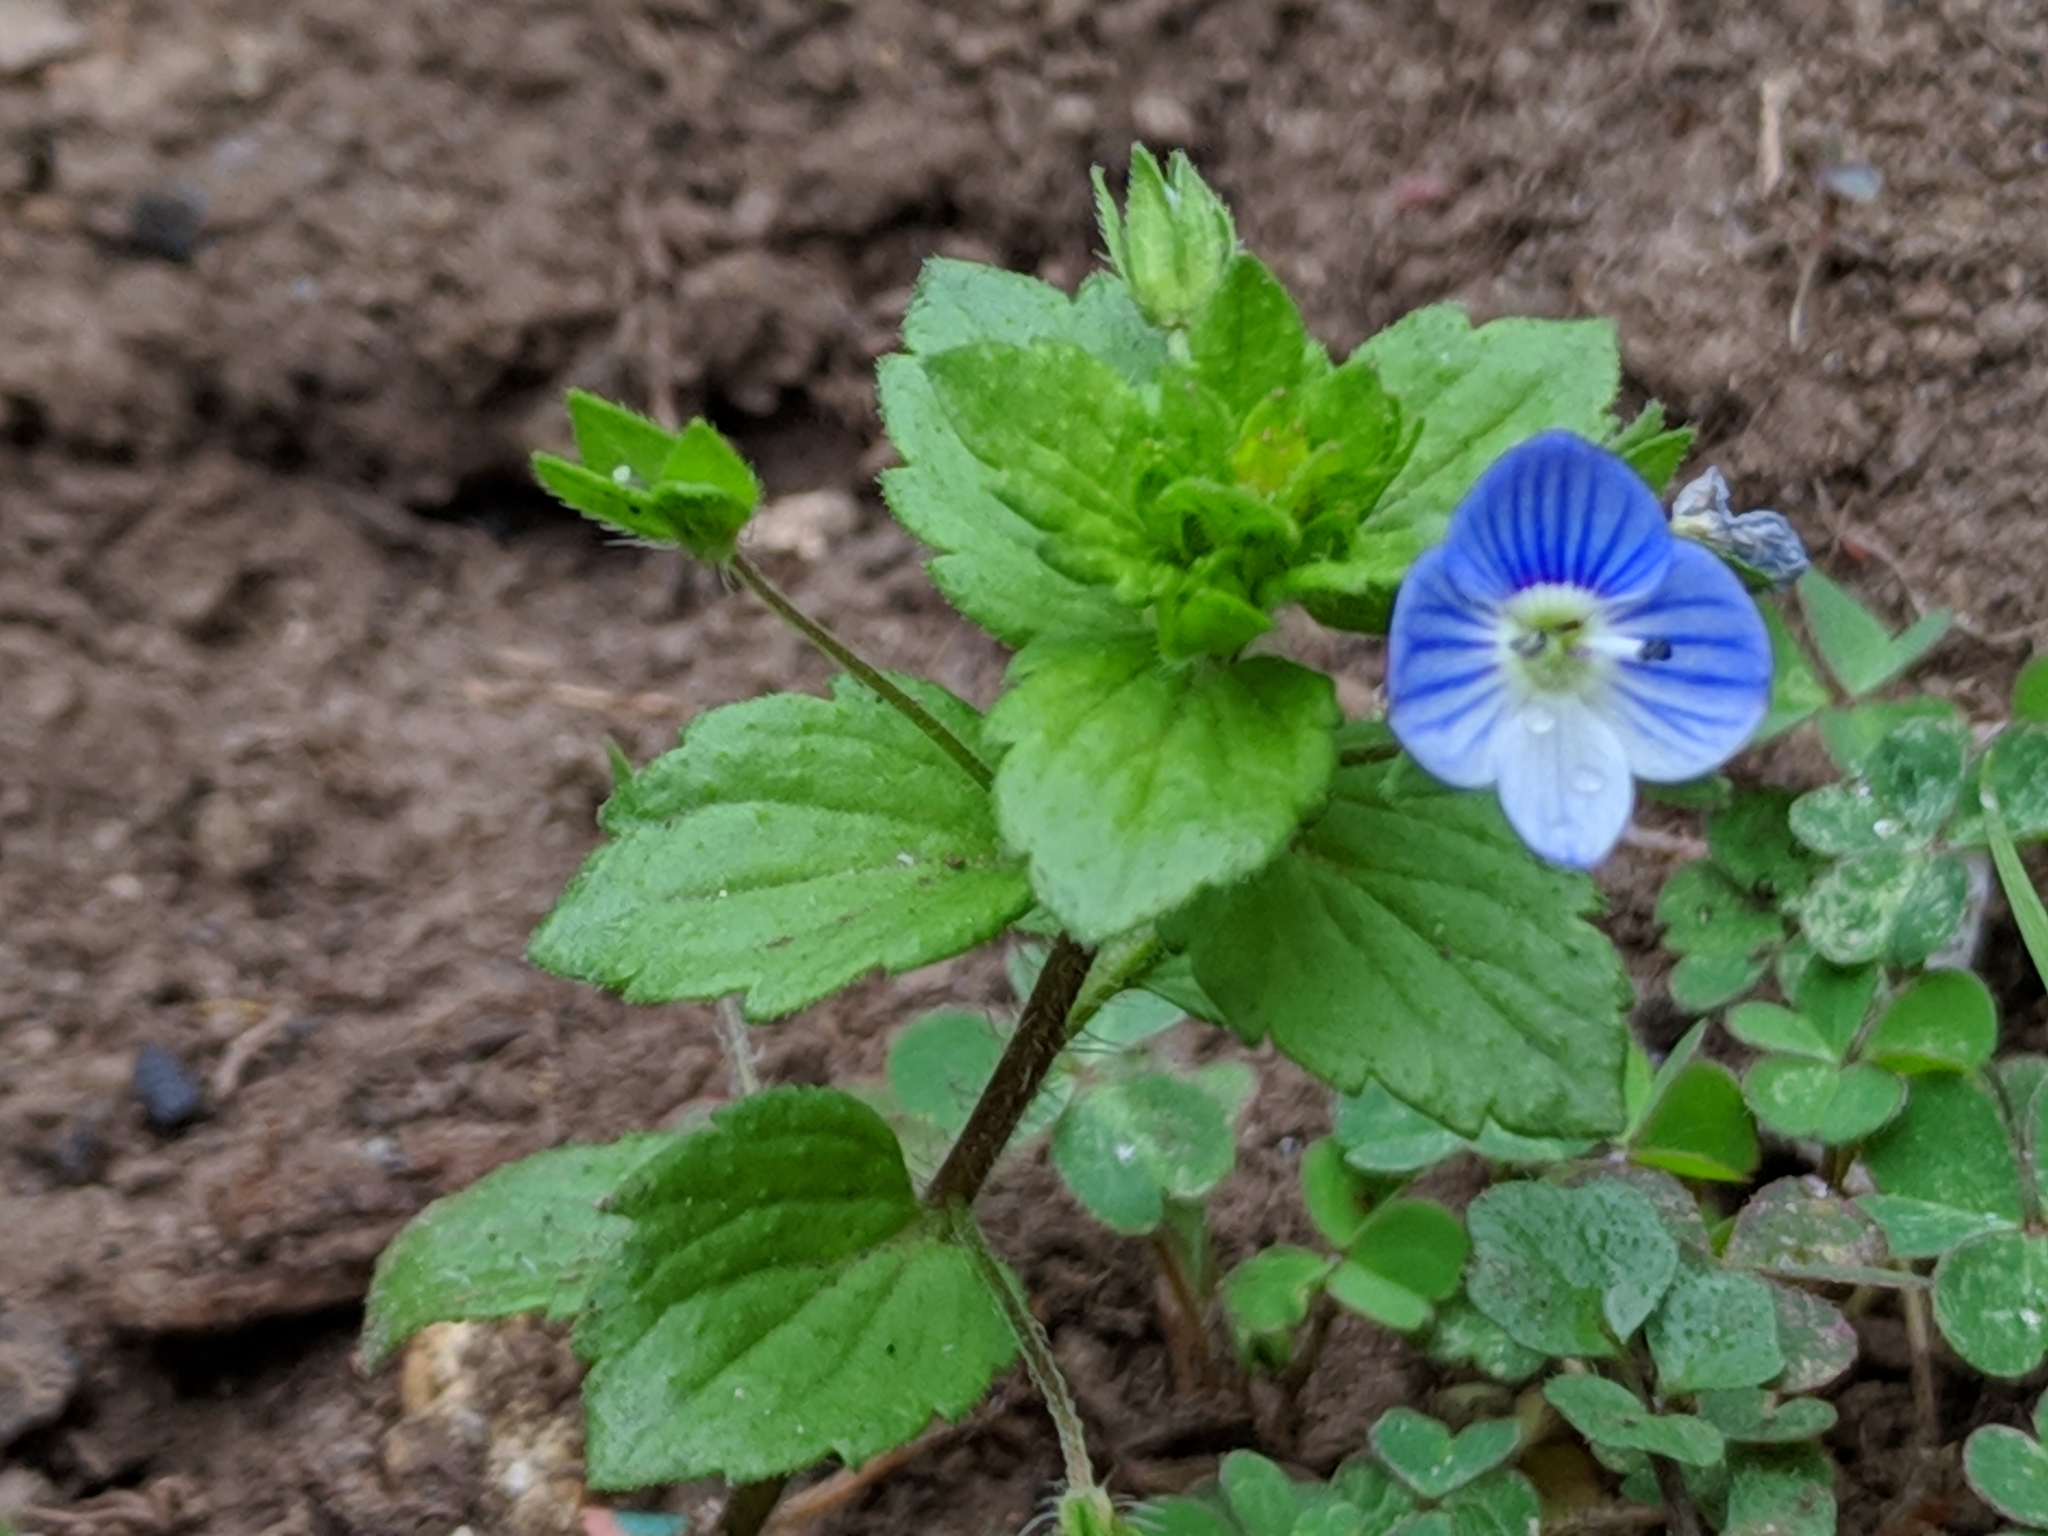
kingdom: Plantae
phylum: Tracheophyta
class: Magnoliopsida
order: Lamiales
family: Plantaginaceae
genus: Veronica
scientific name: Veronica persica
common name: Common field-speedwell
